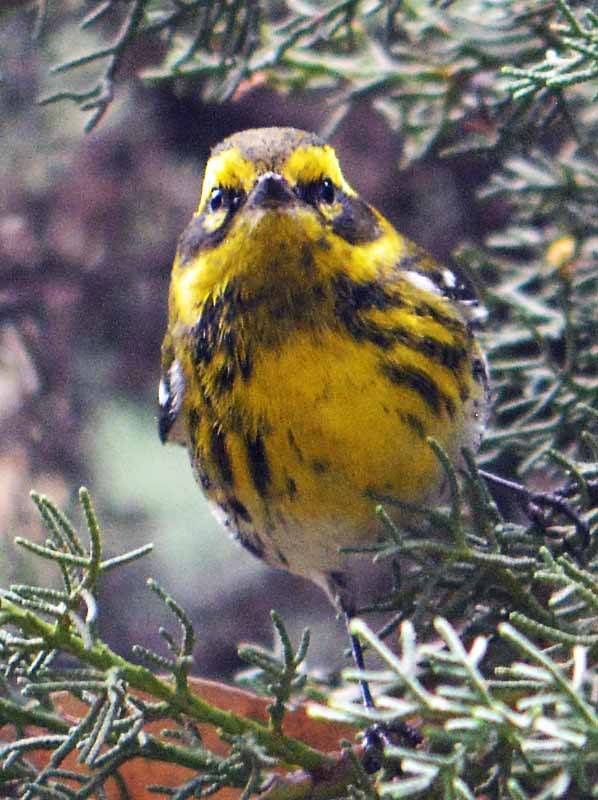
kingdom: Animalia
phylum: Chordata
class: Aves
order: Passeriformes
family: Parulidae
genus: Setophaga
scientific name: Setophaga townsendi
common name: Townsend's warbler
